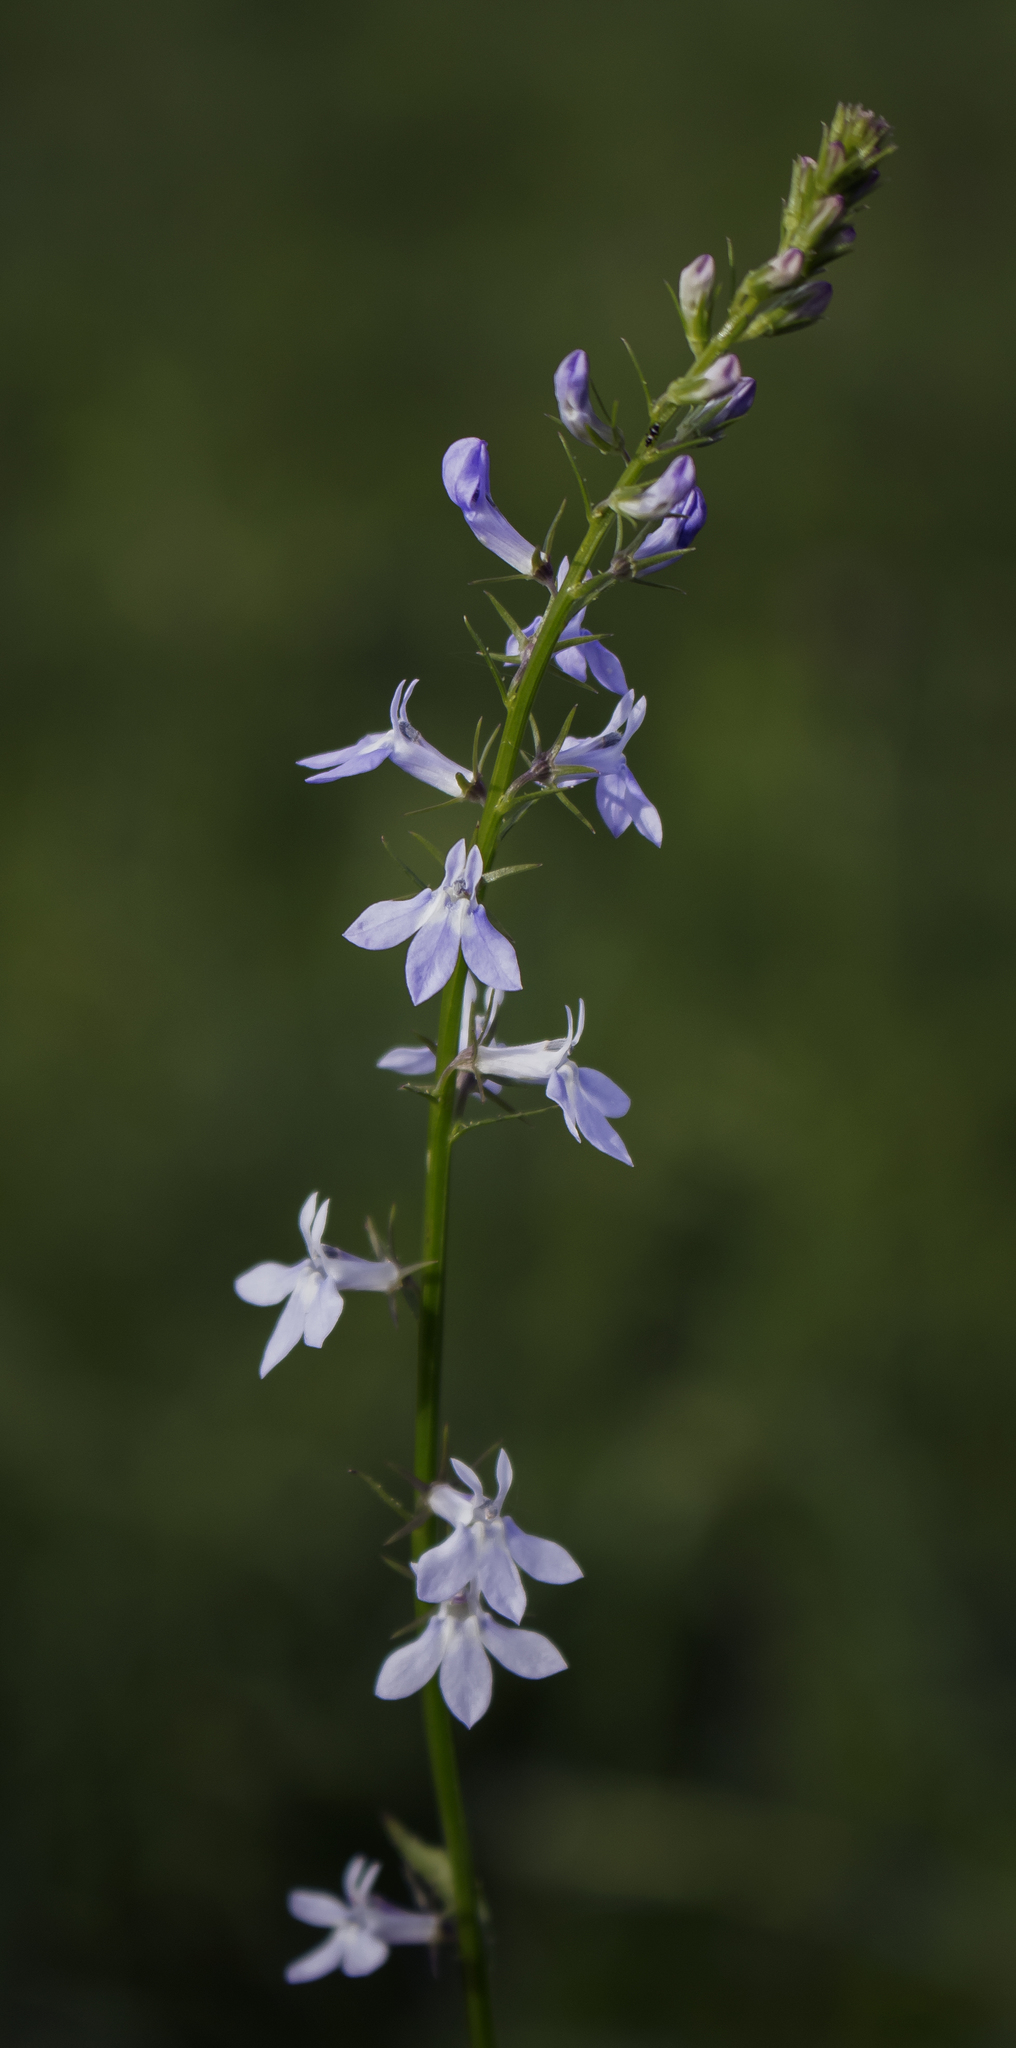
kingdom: Plantae
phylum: Tracheophyta
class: Magnoliopsida
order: Asterales
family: Campanulaceae
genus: Lobelia
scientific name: Lobelia spicata
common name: Pale-spike lobelia
